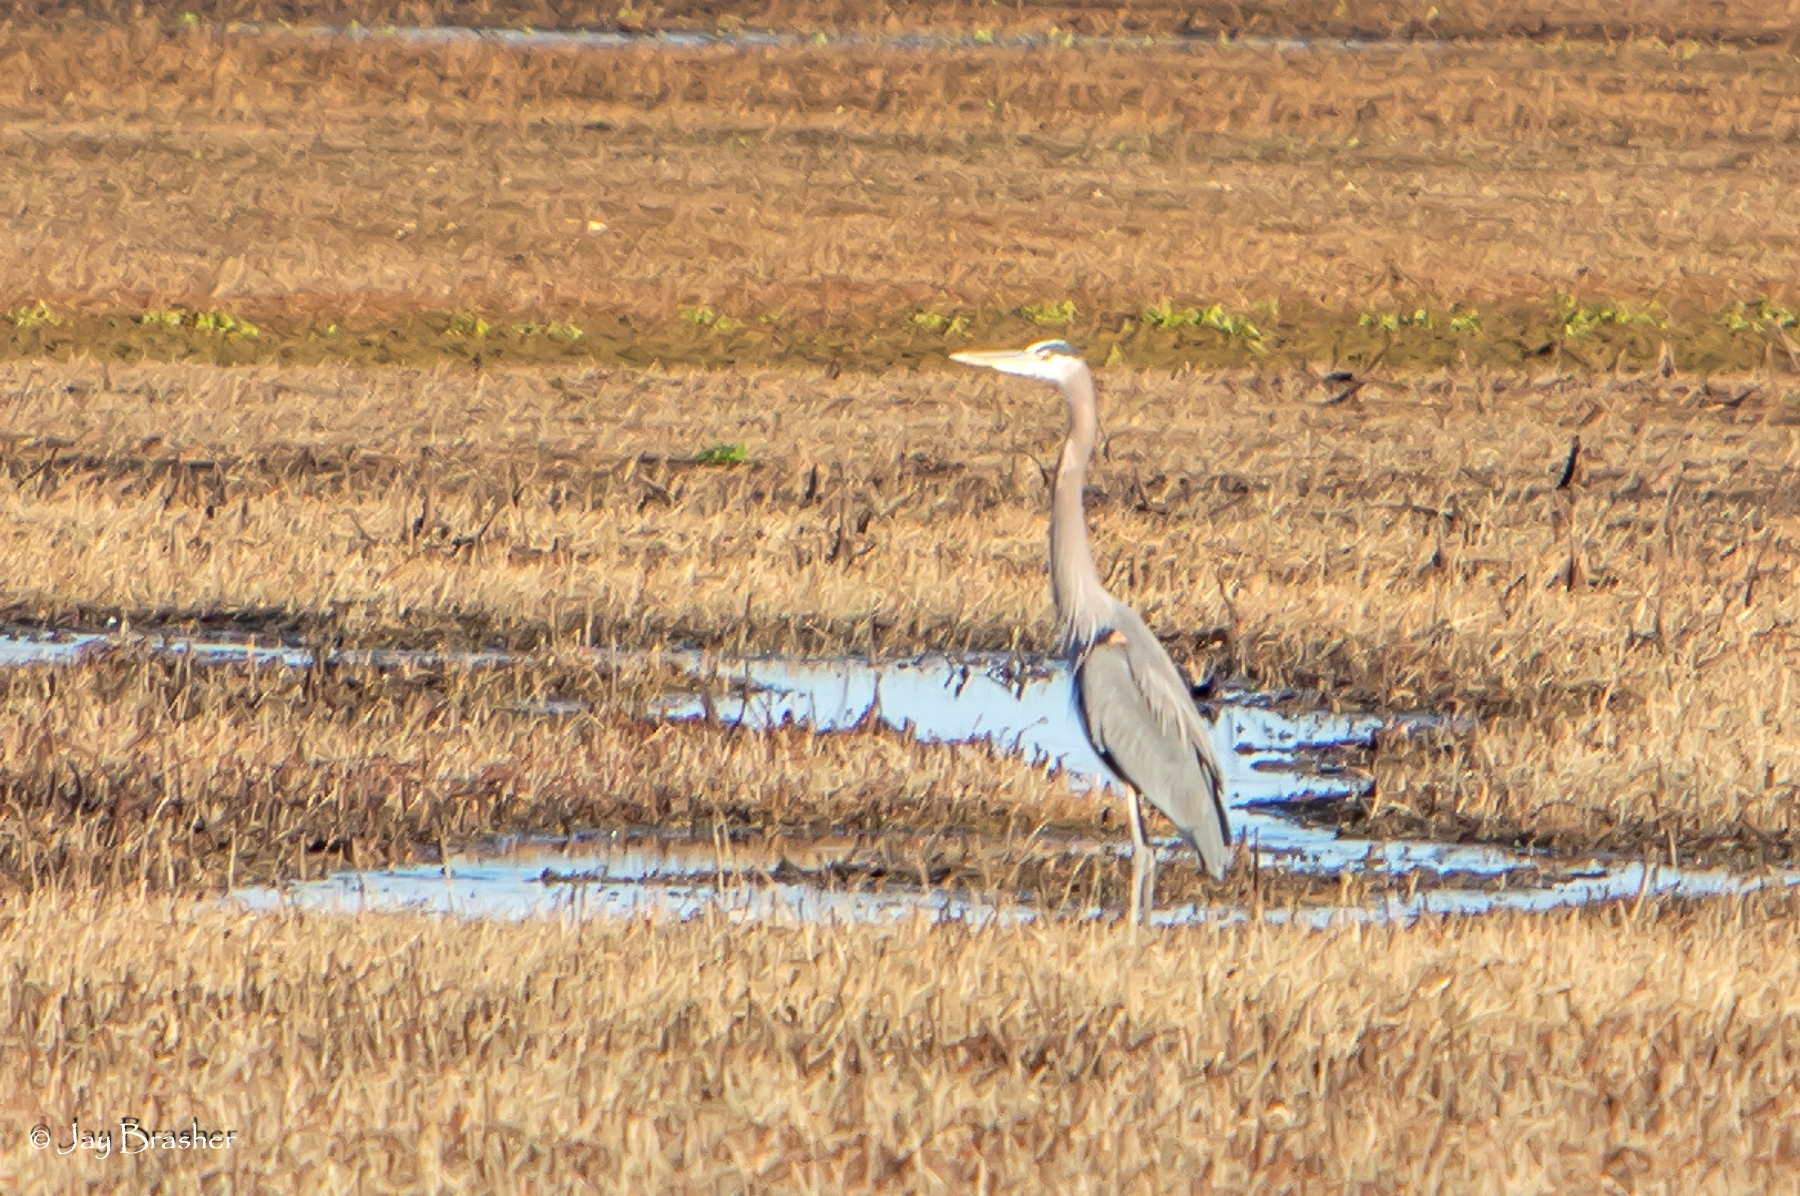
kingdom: Animalia
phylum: Chordata
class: Aves
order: Pelecaniformes
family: Ardeidae
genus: Ardea
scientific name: Ardea herodias
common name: Great blue heron
